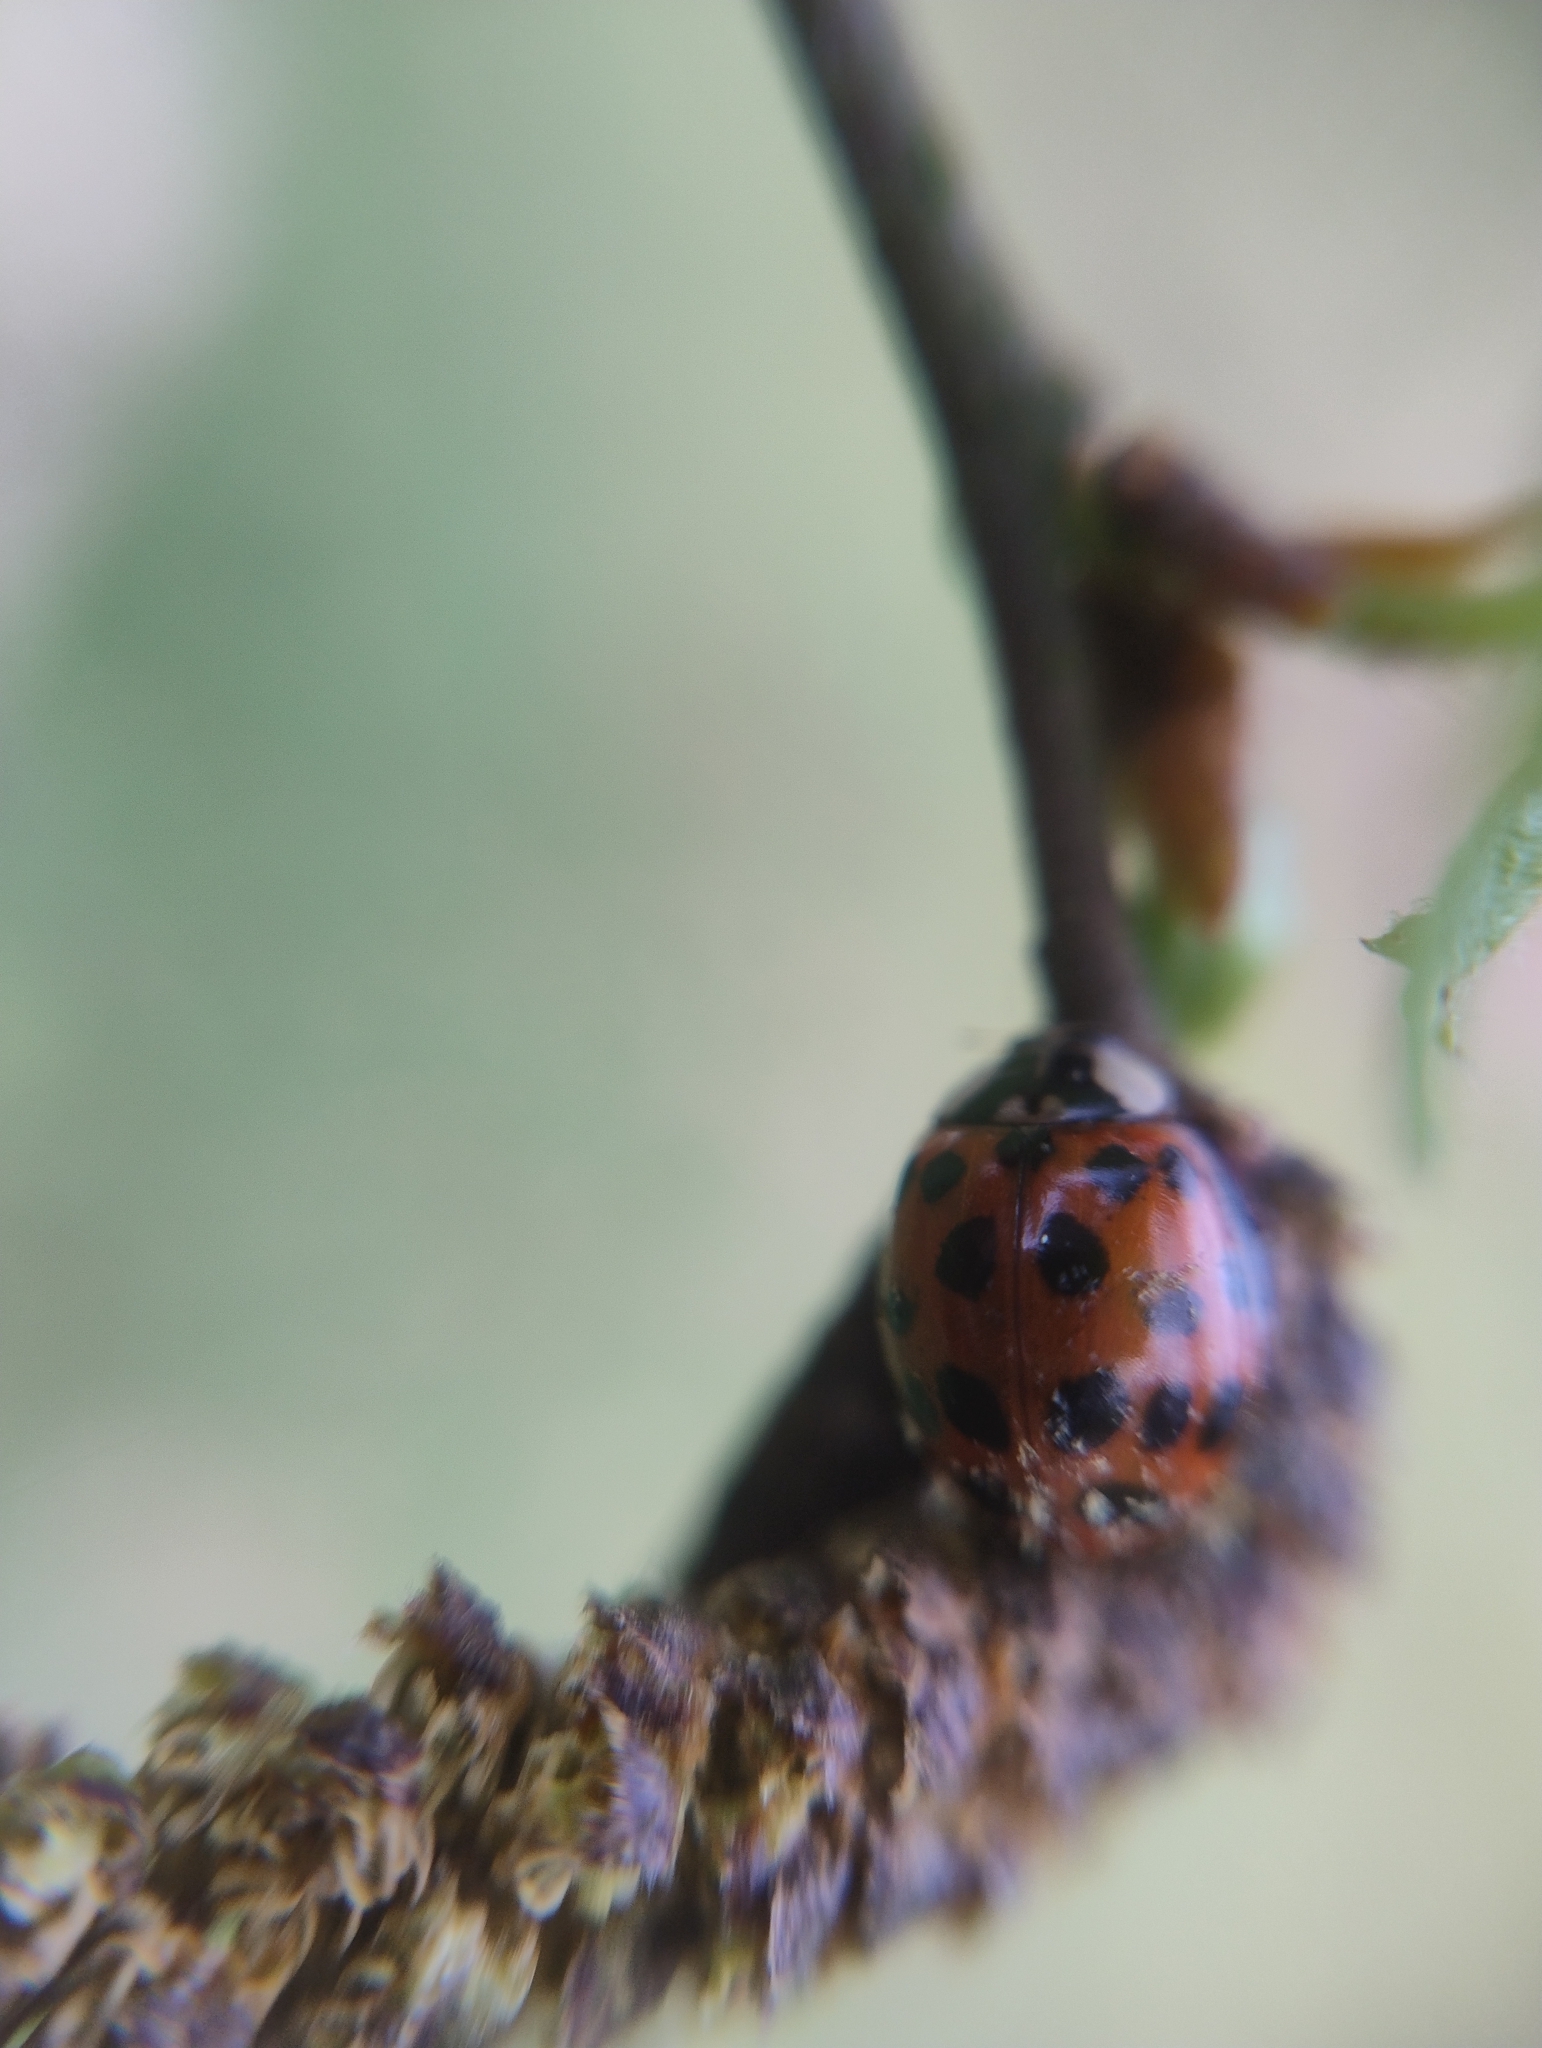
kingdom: Animalia
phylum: Arthropoda
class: Insecta
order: Coleoptera
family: Coccinellidae
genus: Harmonia
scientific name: Harmonia axyridis
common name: Harlequin ladybird
